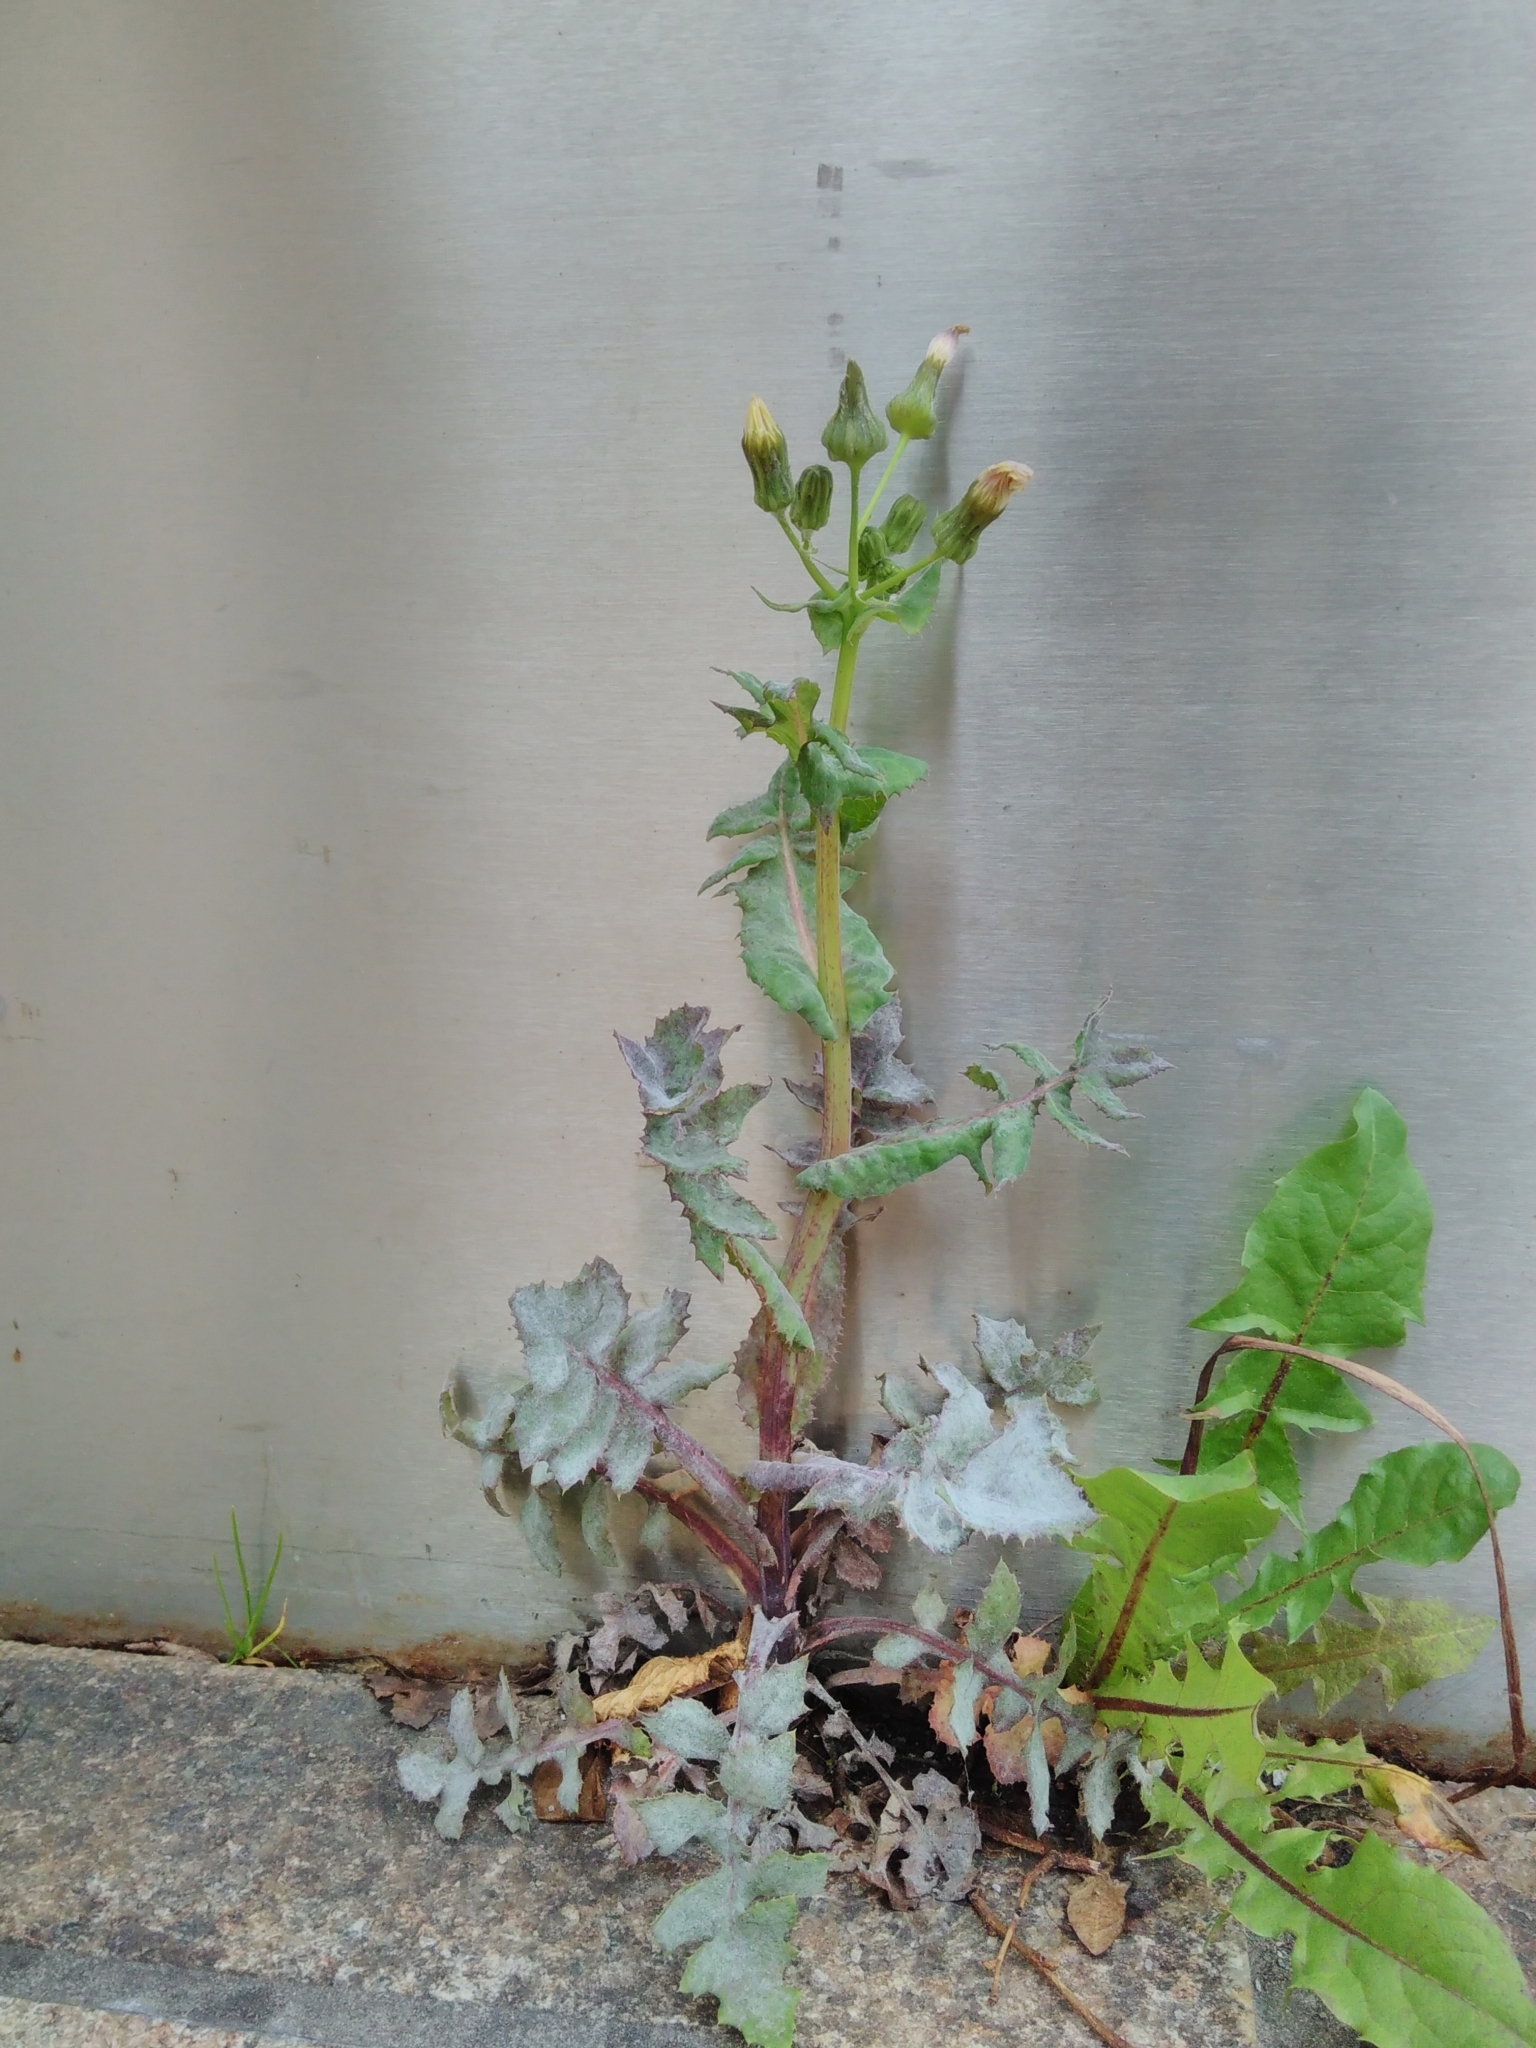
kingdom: Plantae
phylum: Tracheophyta
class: Magnoliopsida
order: Asterales
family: Asteraceae
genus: Sonchus
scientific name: Sonchus asper
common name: Prickly sow-thistle
